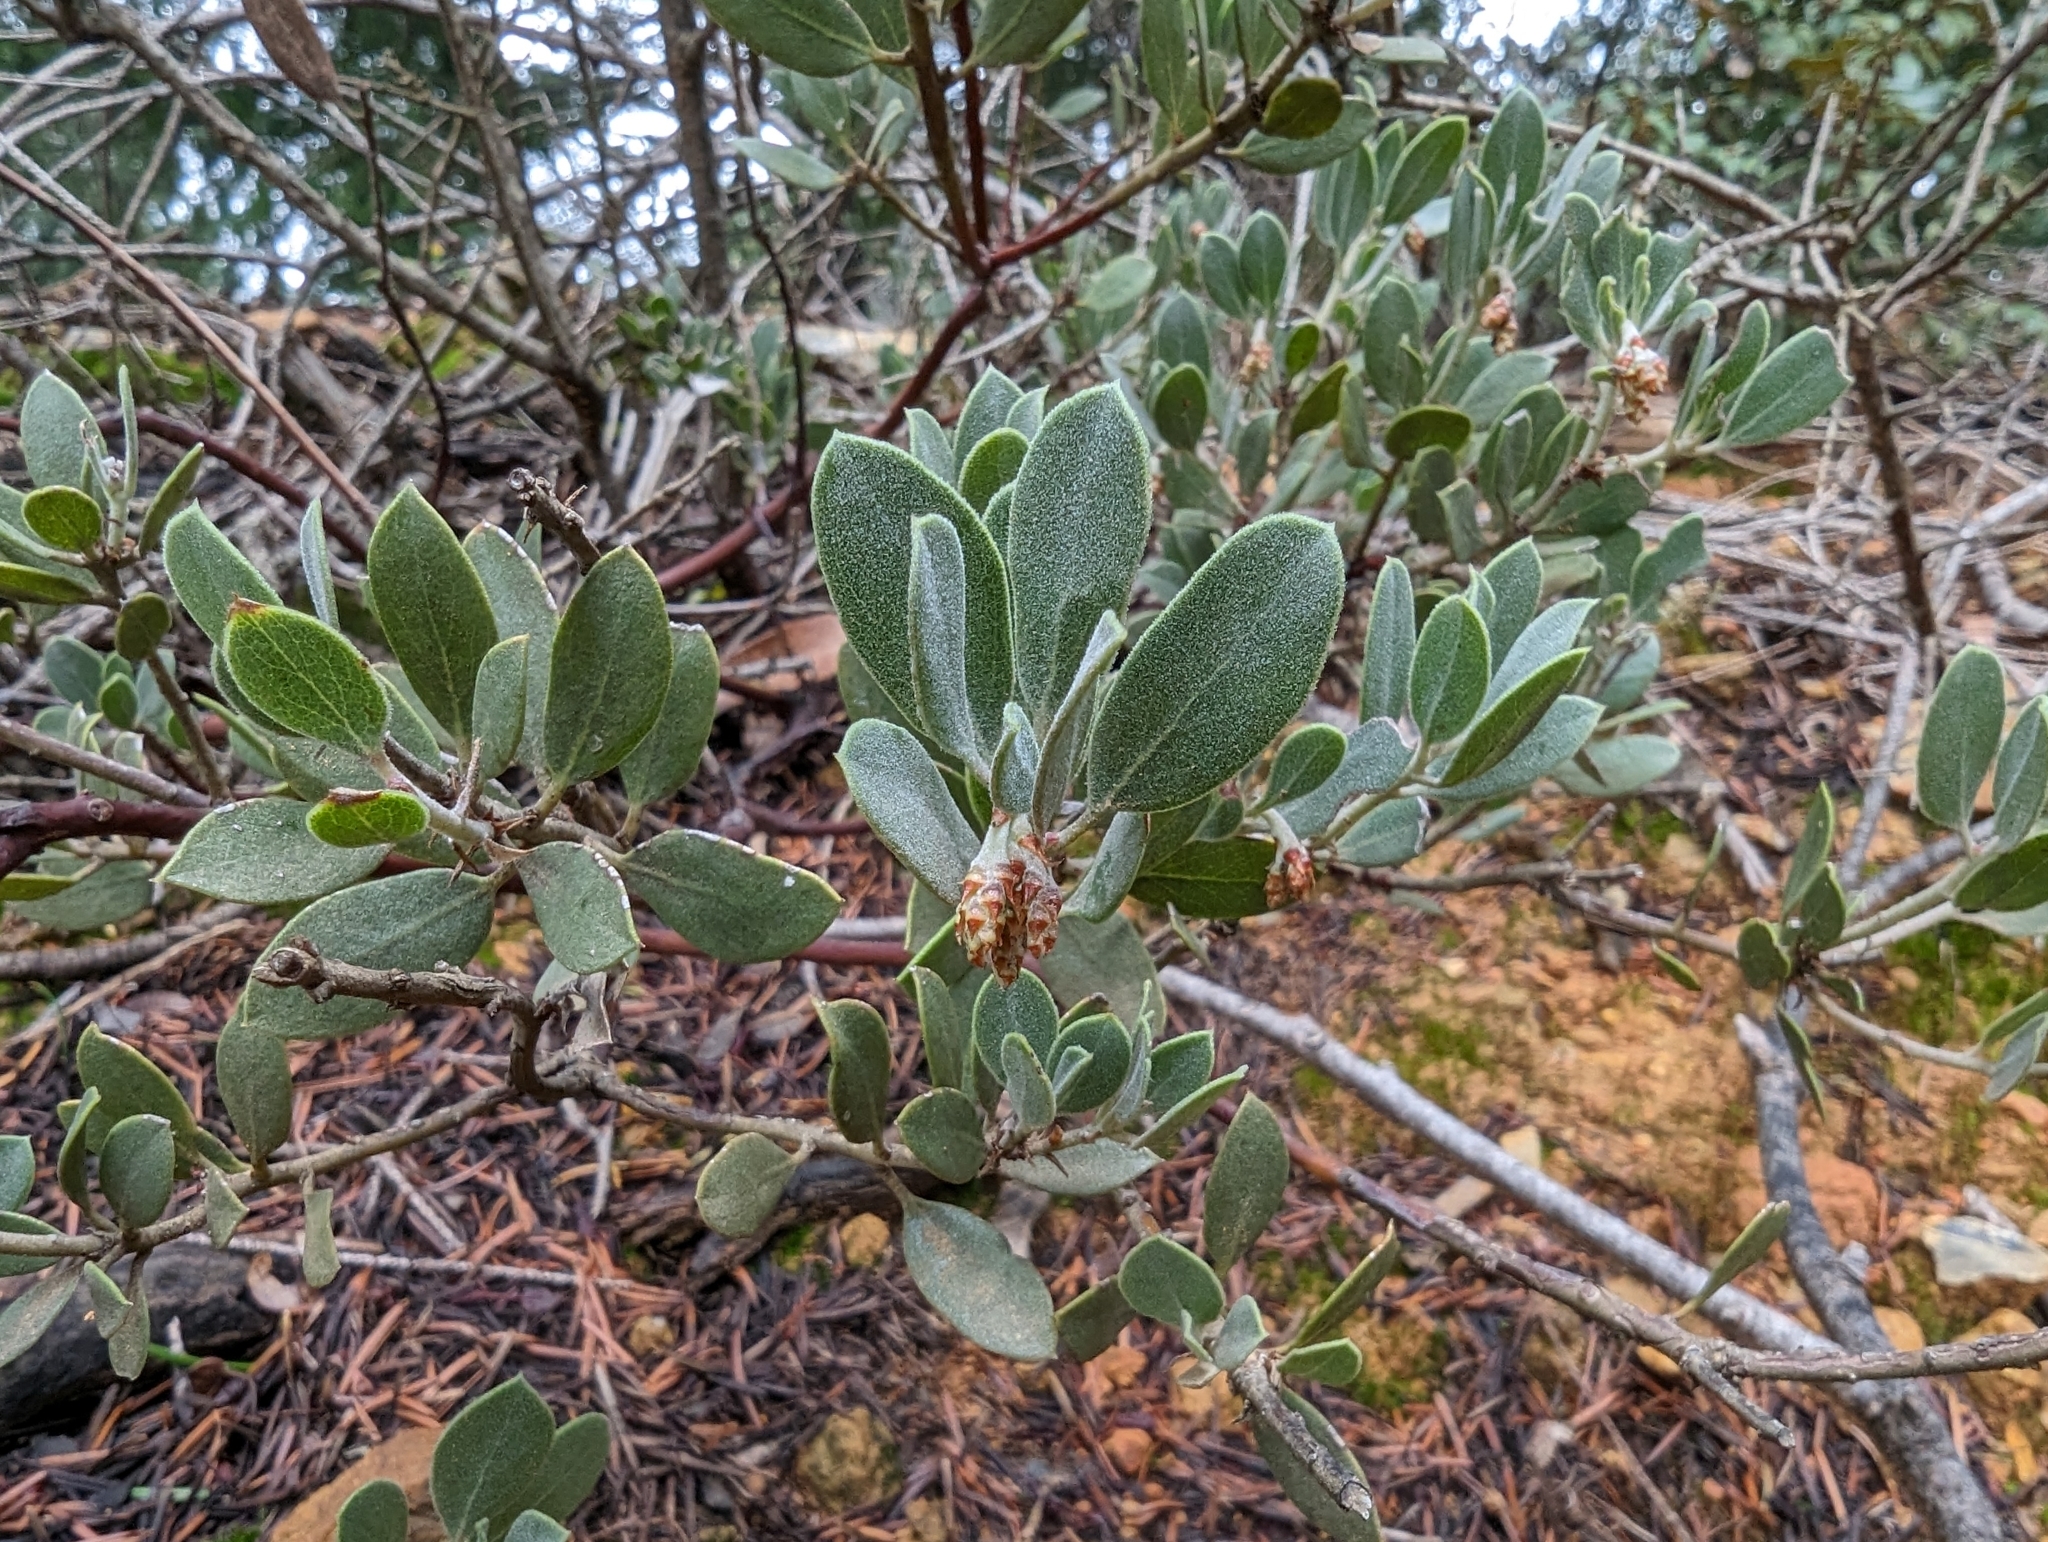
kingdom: Plantae
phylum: Tracheophyta
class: Magnoliopsida
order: Ericales
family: Ericaceae
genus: Arctostaphylos
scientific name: Arctostaphylos montana
